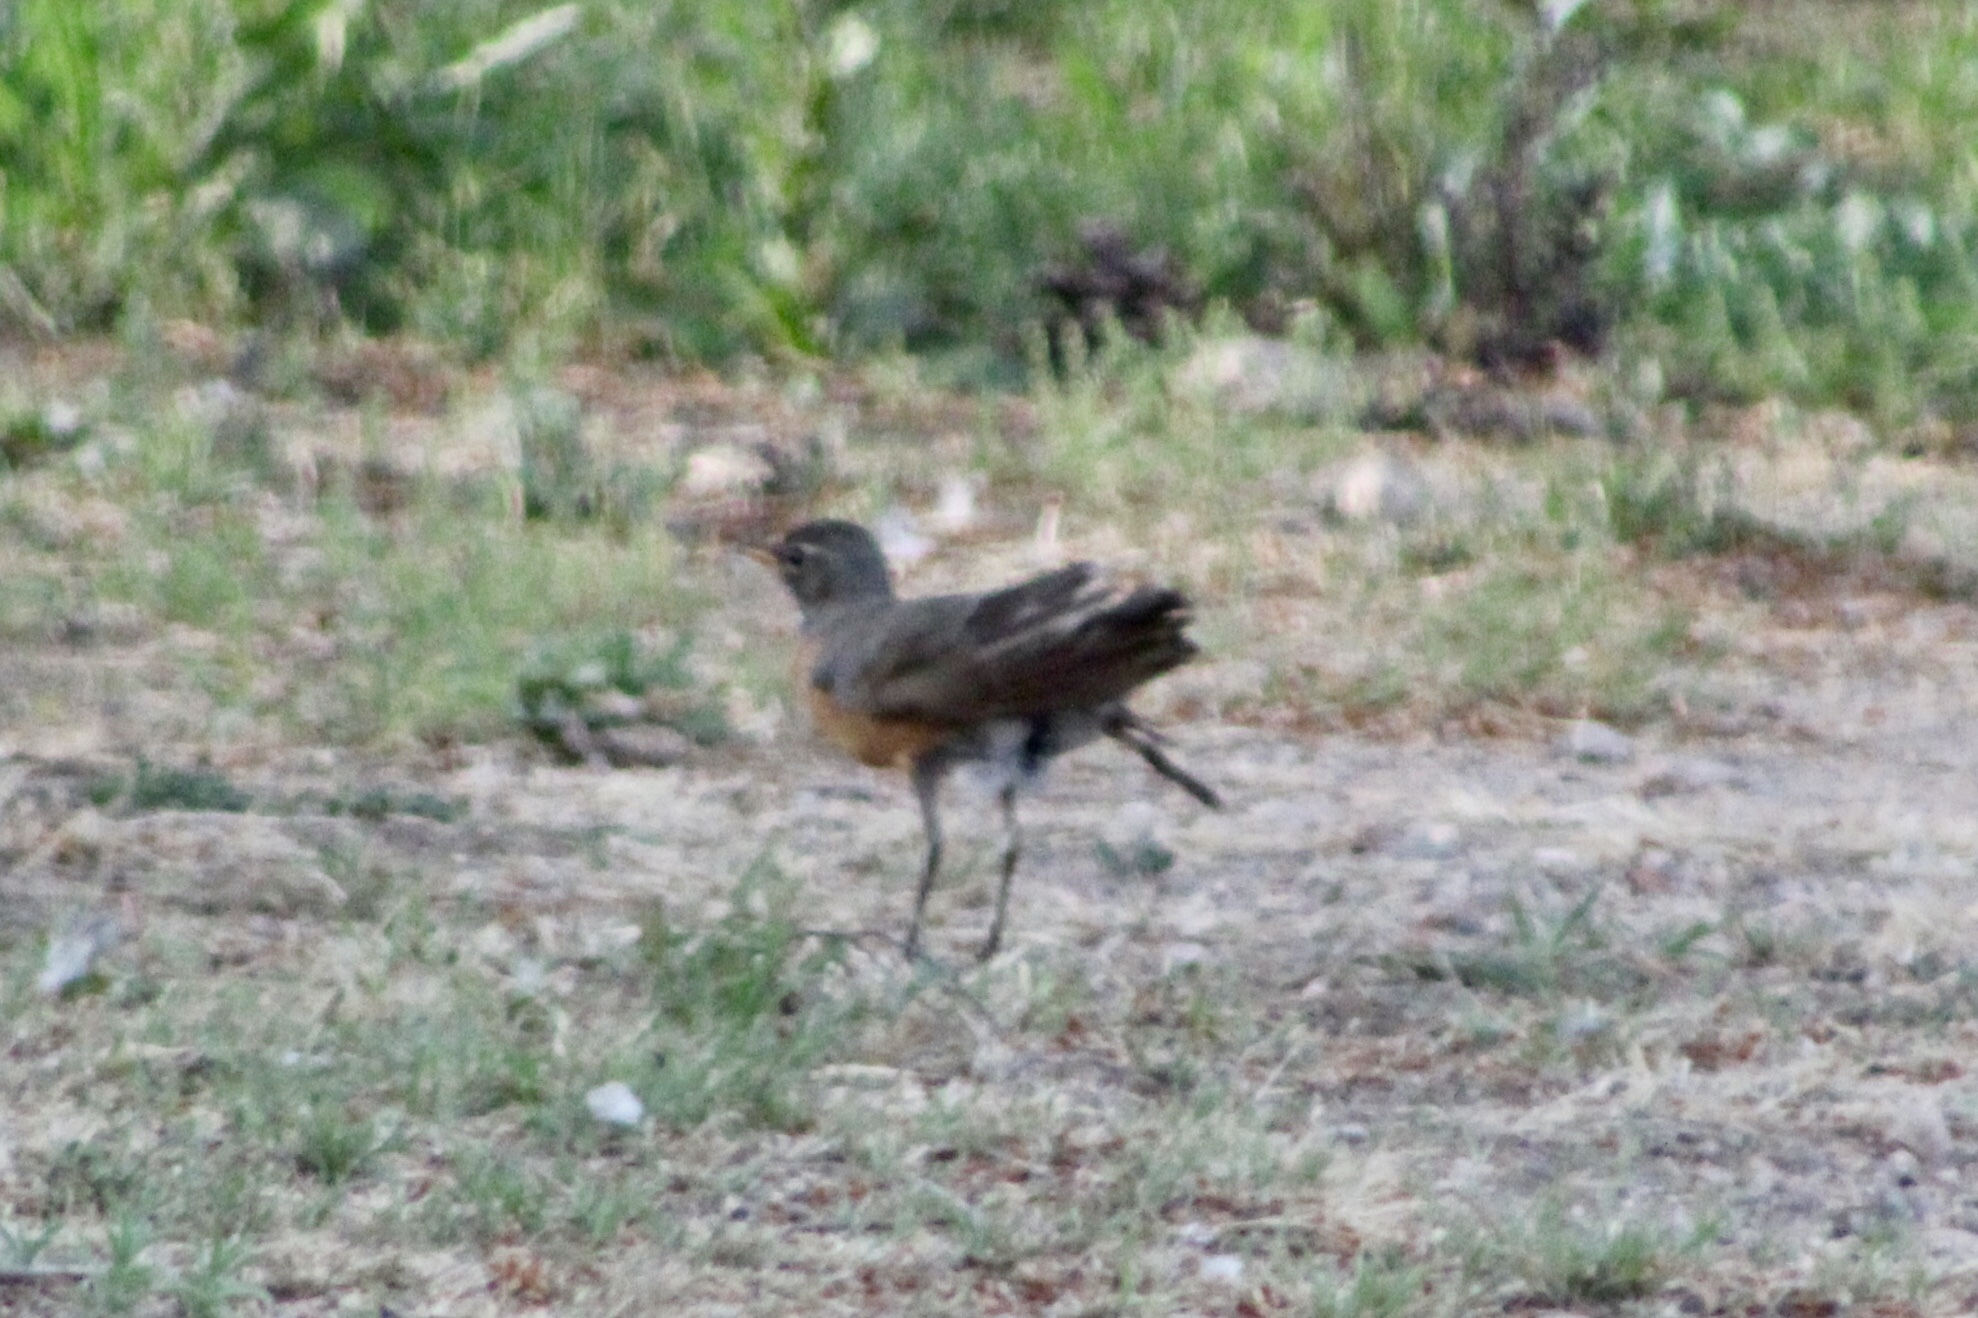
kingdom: Animalia
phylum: Chordata
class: Aves
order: Passeriformes
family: Turdidae
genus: Turdus
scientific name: Turdus migratorius
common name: American robin
